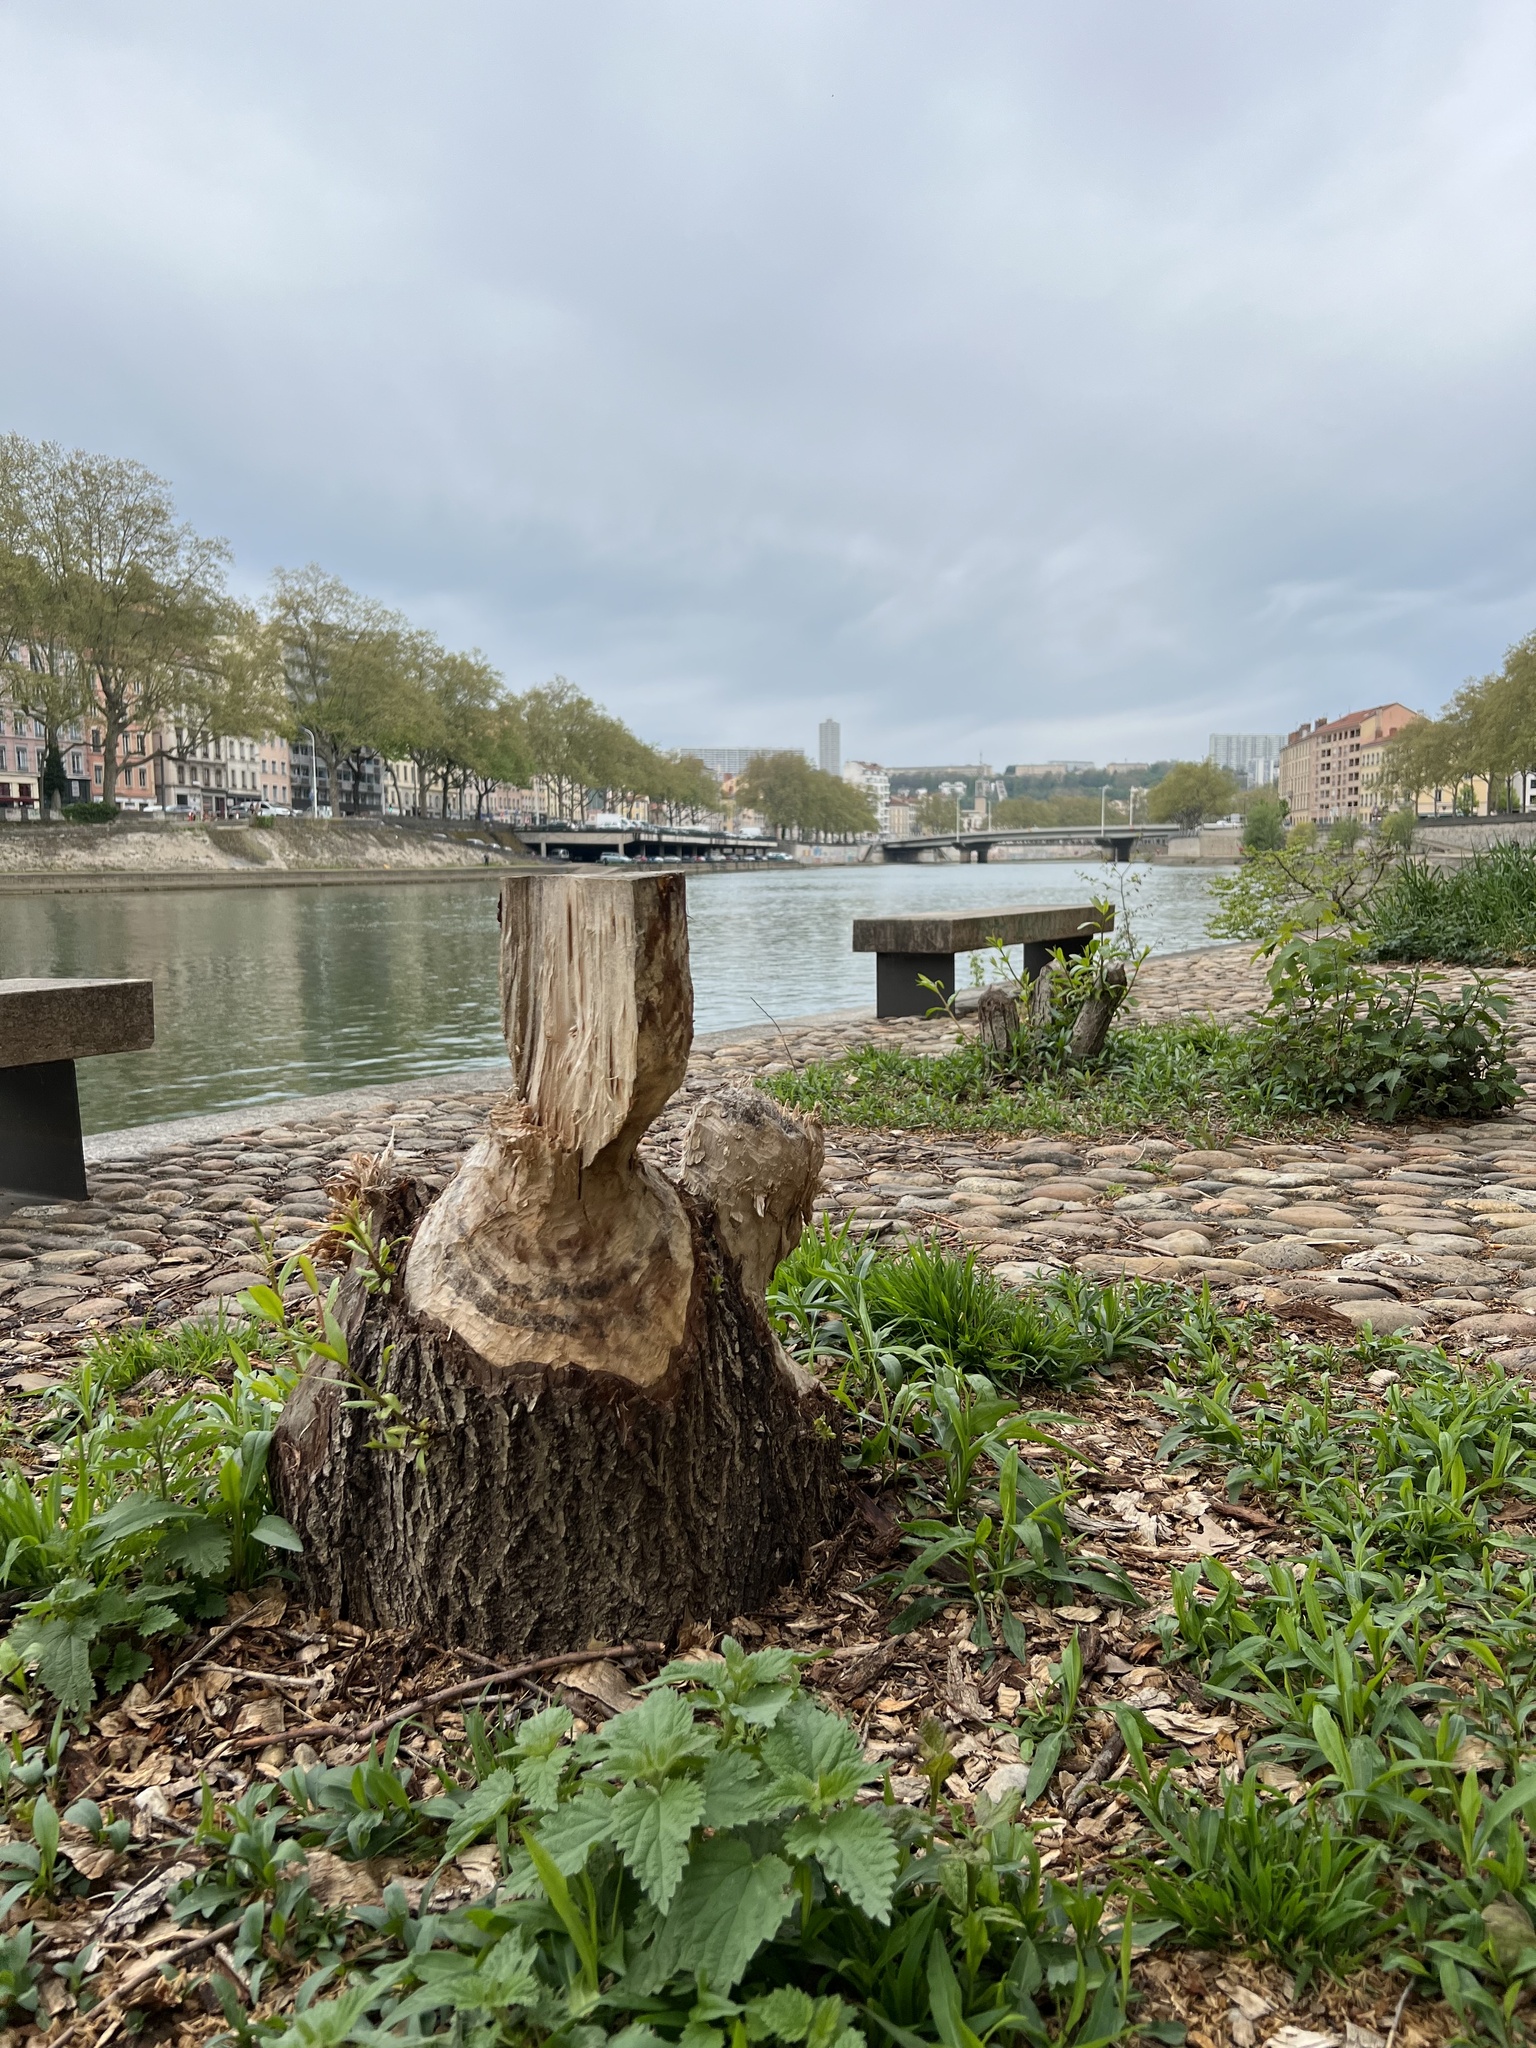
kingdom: Animalia
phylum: Chordata
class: Mammalia
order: Rodentia
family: Castoridae
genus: Castor
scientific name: Castor fiber
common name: Eurasian beaver
